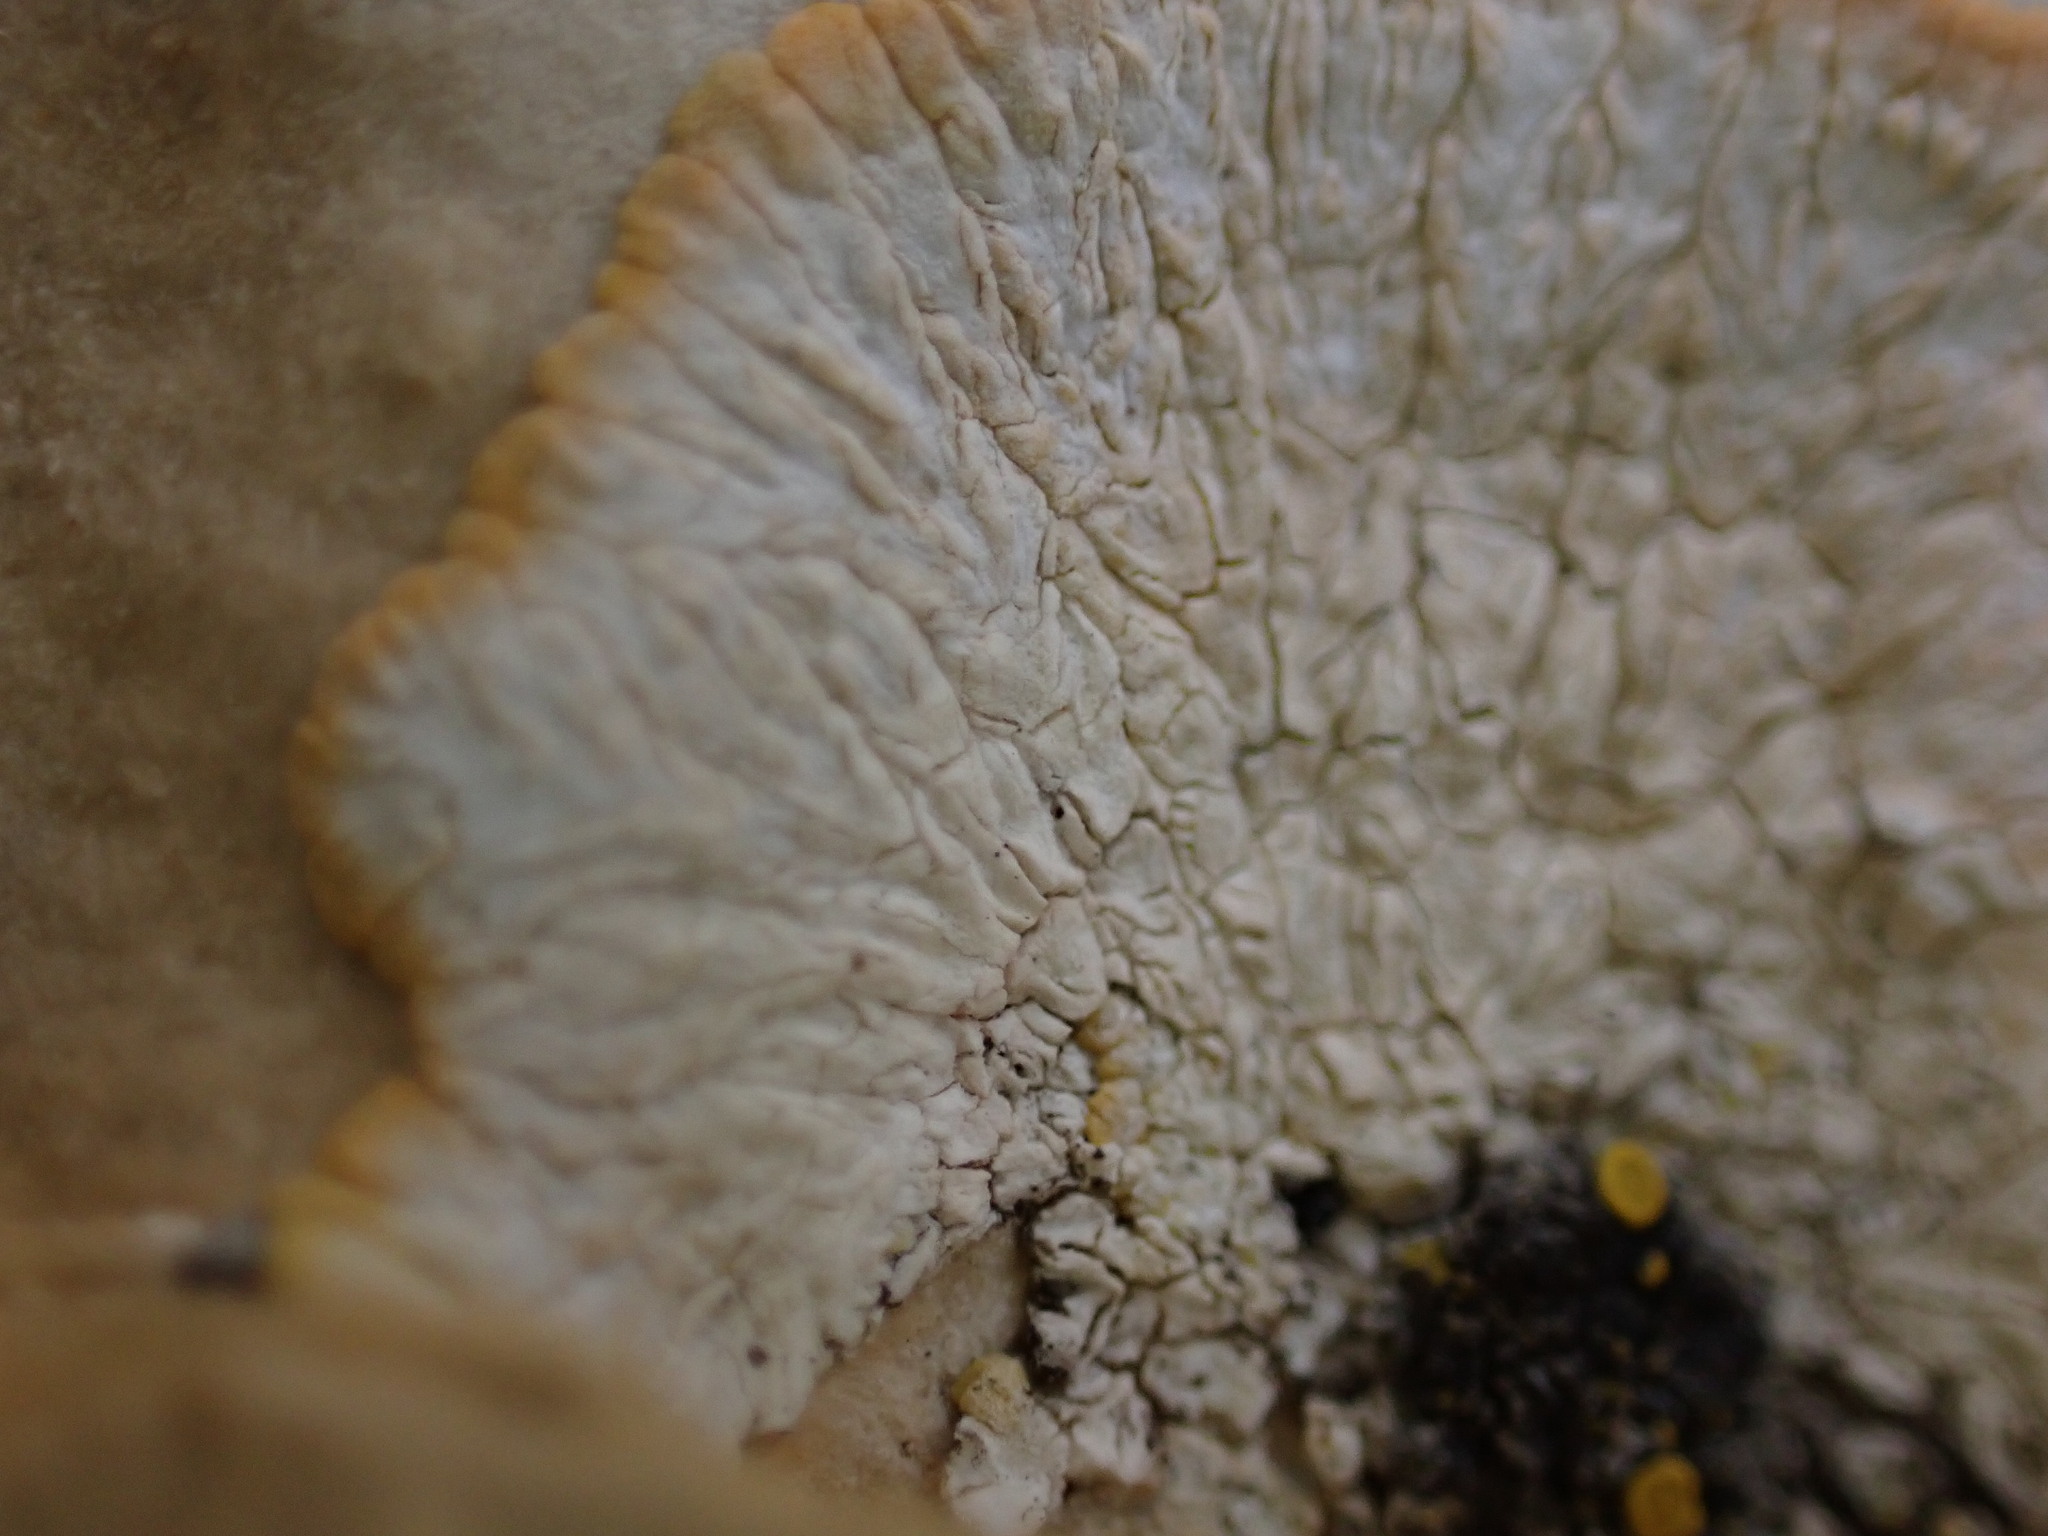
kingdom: Fungi
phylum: Ascomycota
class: Lecanoromycetes
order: Teloschistales
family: Teloschistaceae
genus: Variospora
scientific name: Variospora aurantia
